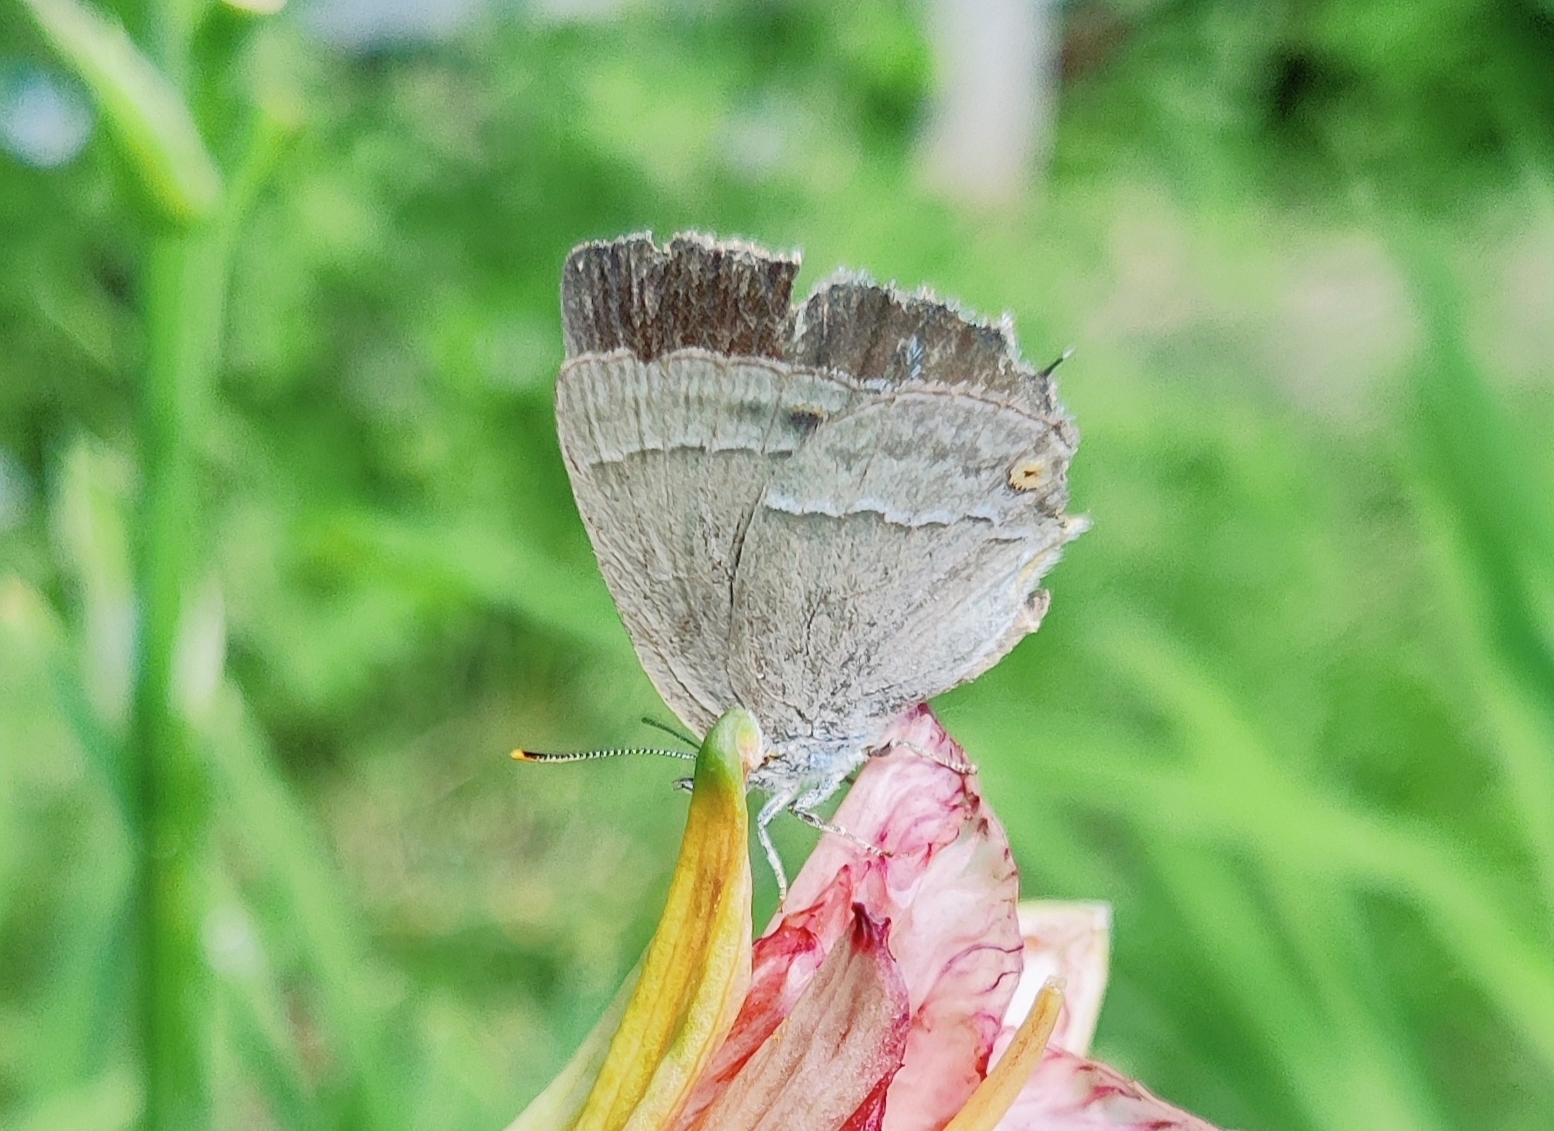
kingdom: Animalia
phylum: Arthropoda
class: Insecta
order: Lepidoptera
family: Lycaenidae
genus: Quercusia
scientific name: Quercusia quercus
